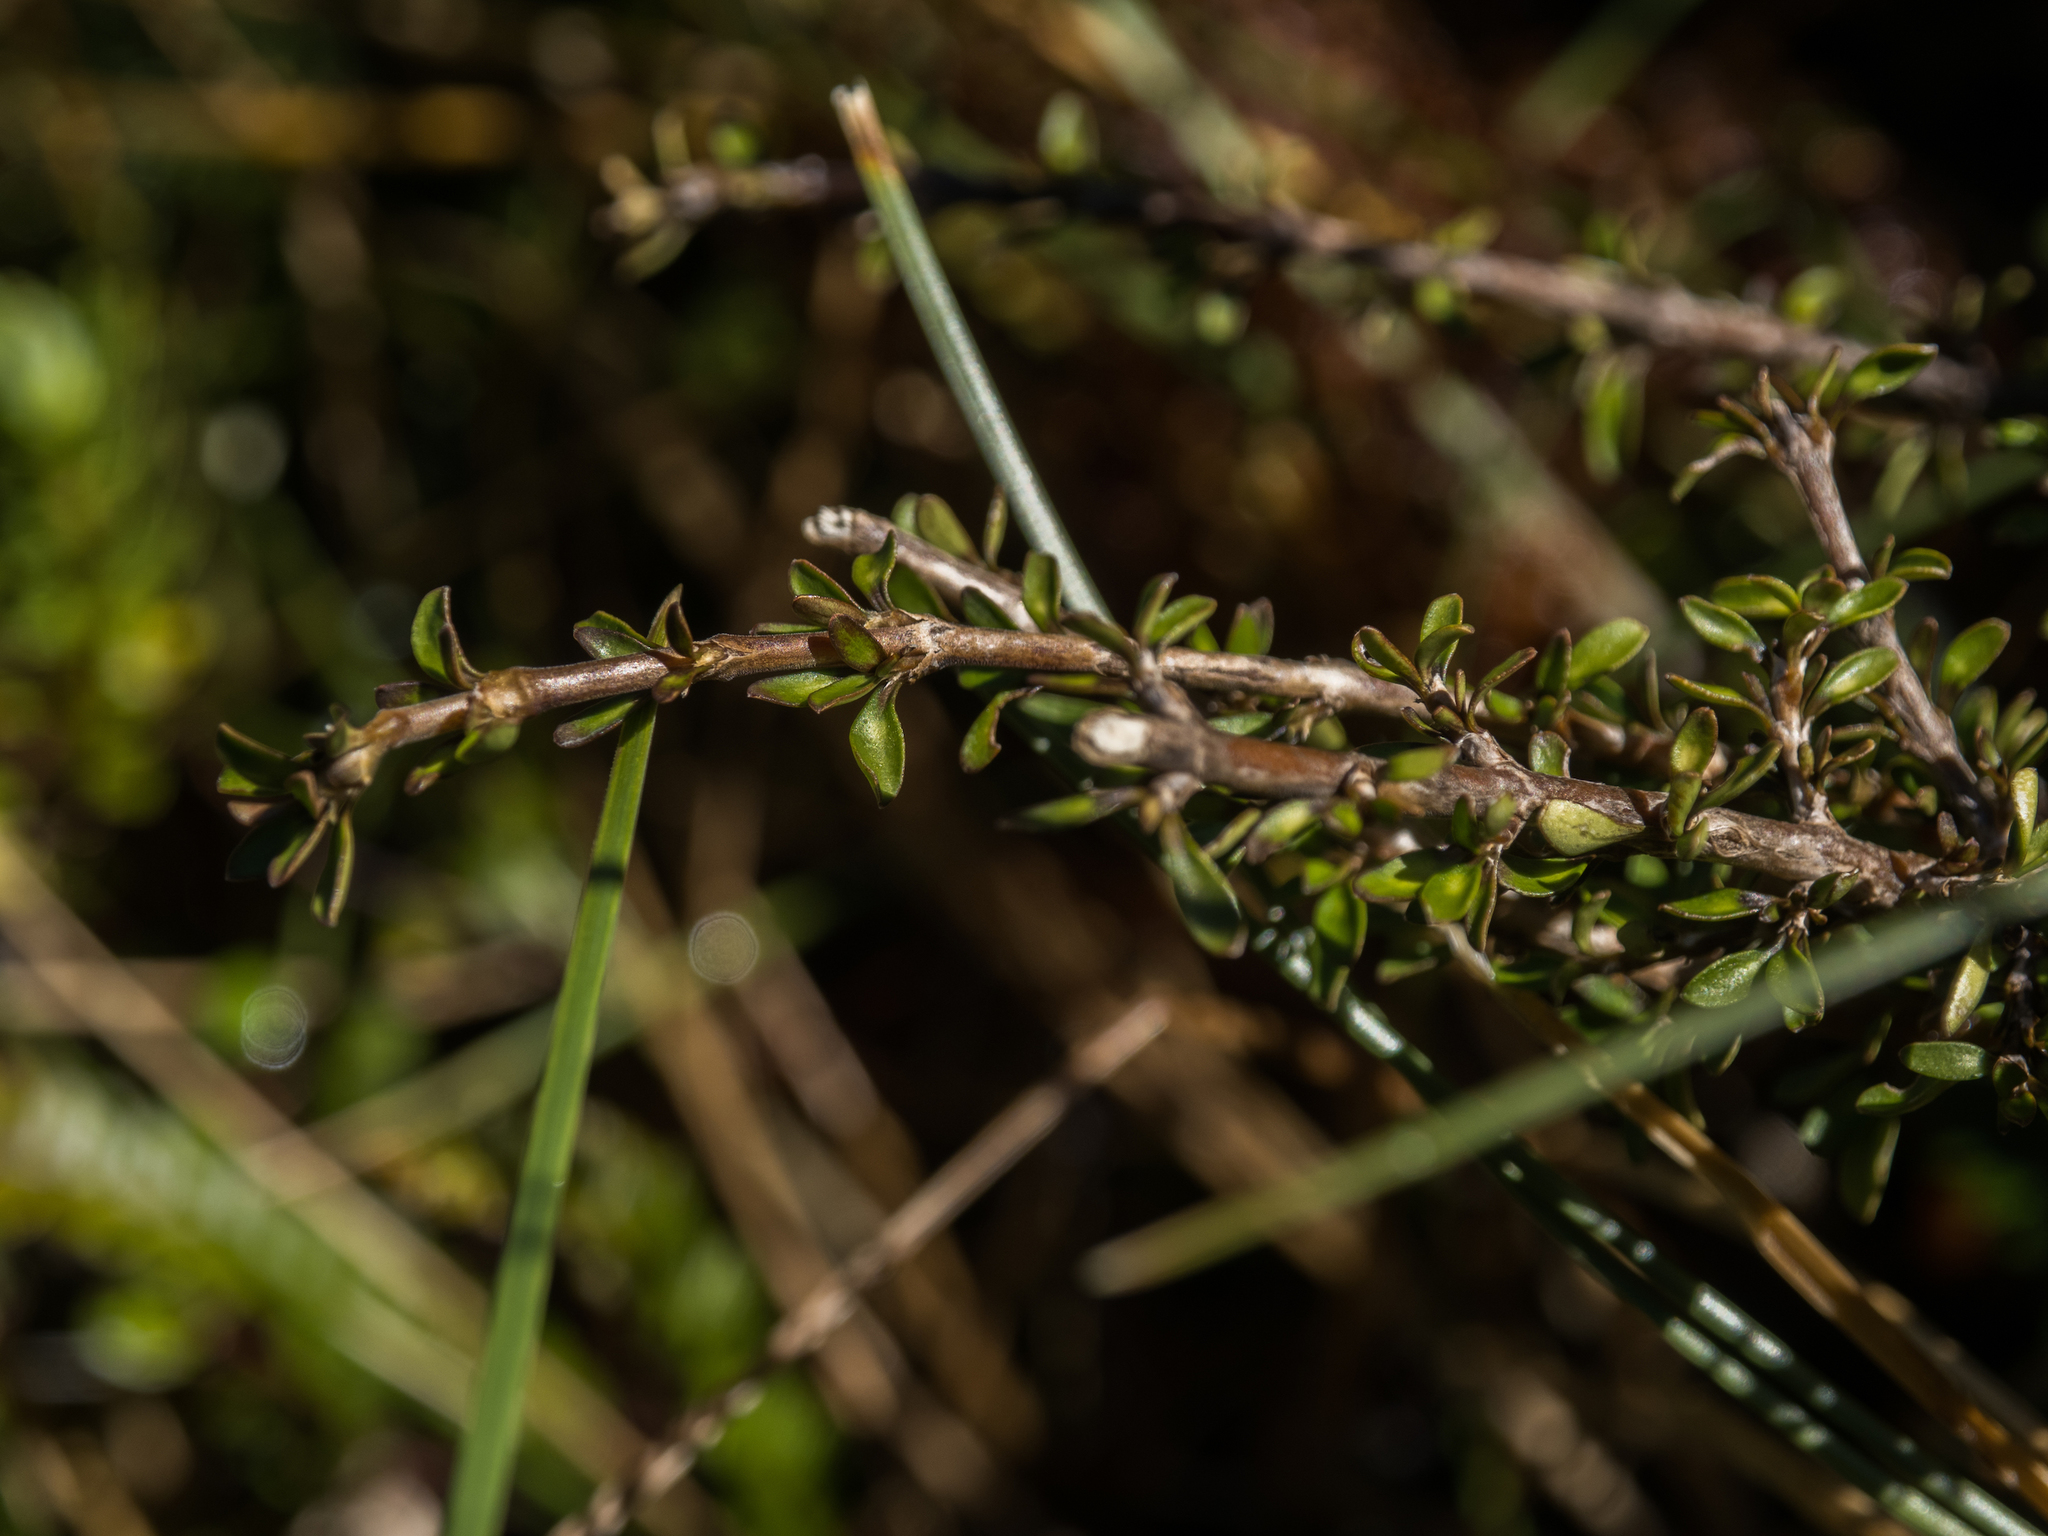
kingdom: Plantae
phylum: Tracheophyta
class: Magnoliopsida
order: Gentianales
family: Rubiaceae
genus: Coprosma
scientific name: Coprosma cheesemanii
